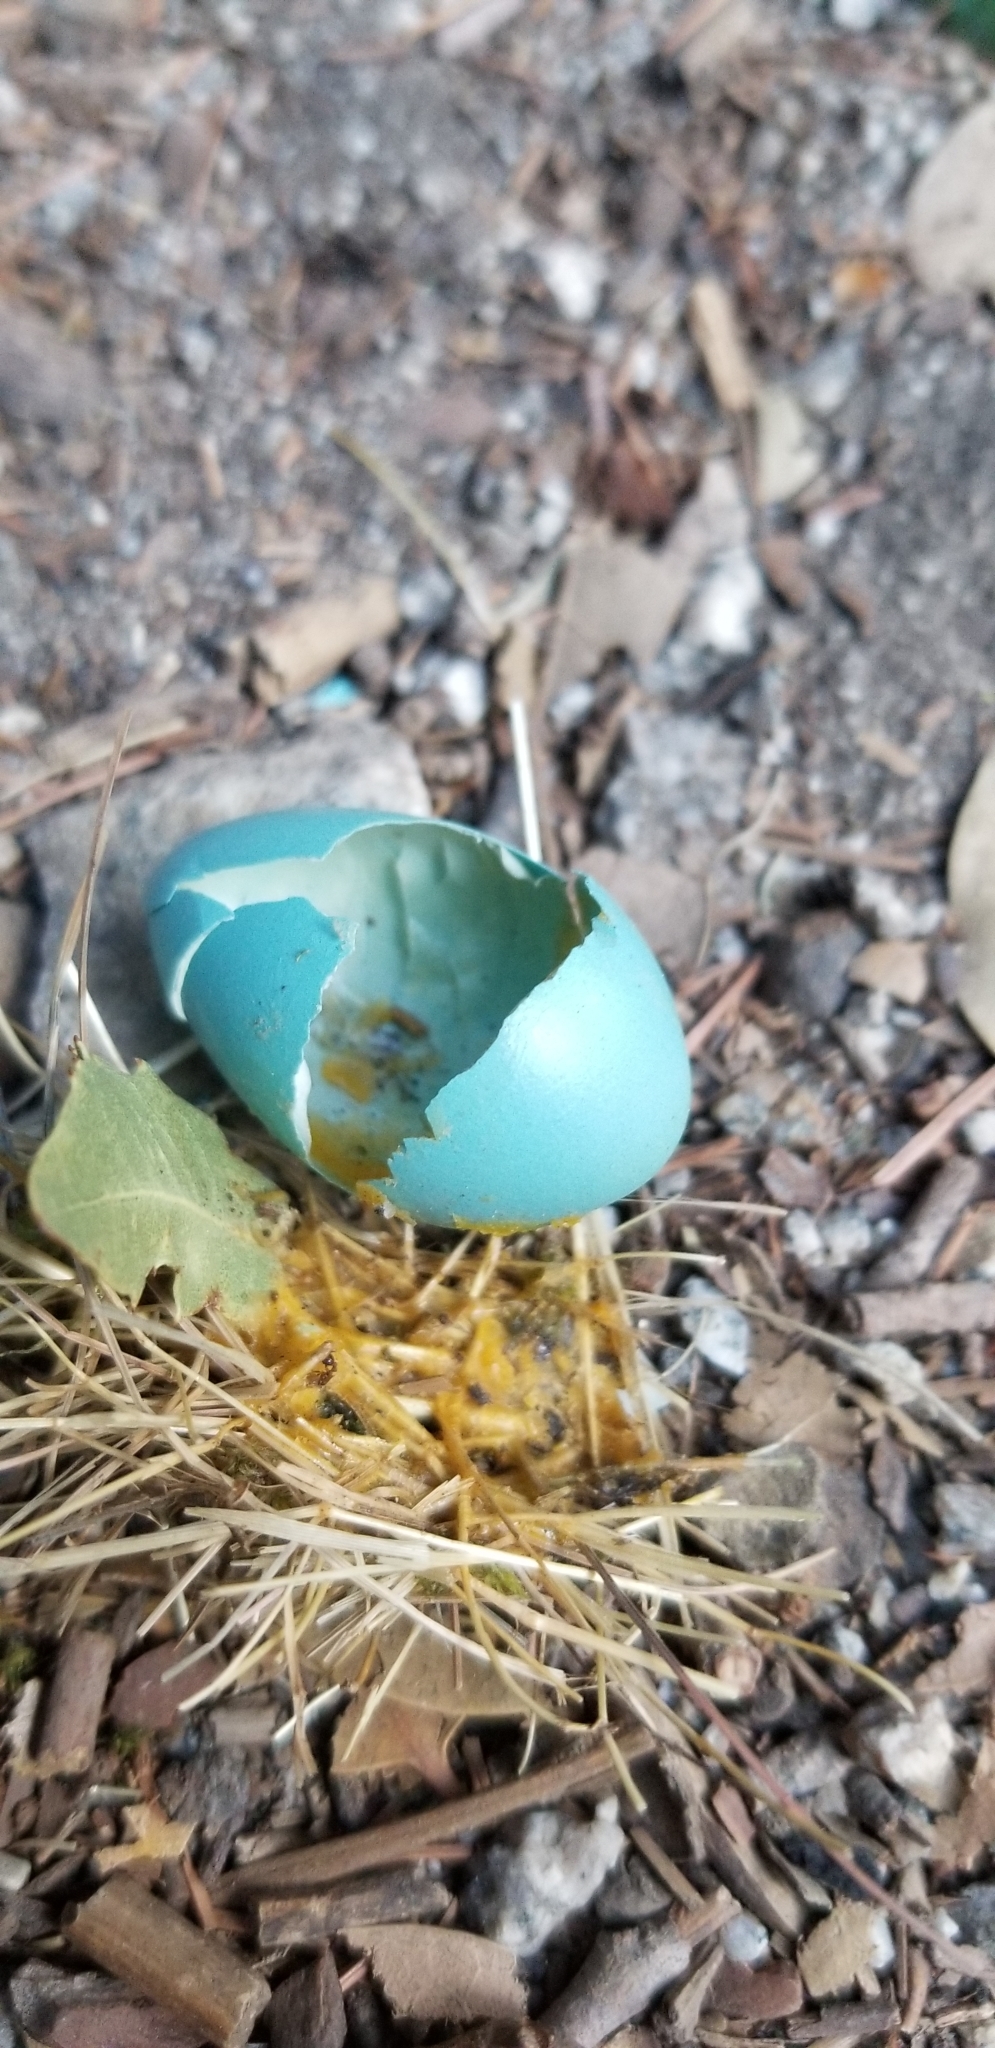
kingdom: Animalia
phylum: Chordata
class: Aves
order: Passeriformes
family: Turdidae
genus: Turdus
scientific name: Turdus migratorius
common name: American robin
